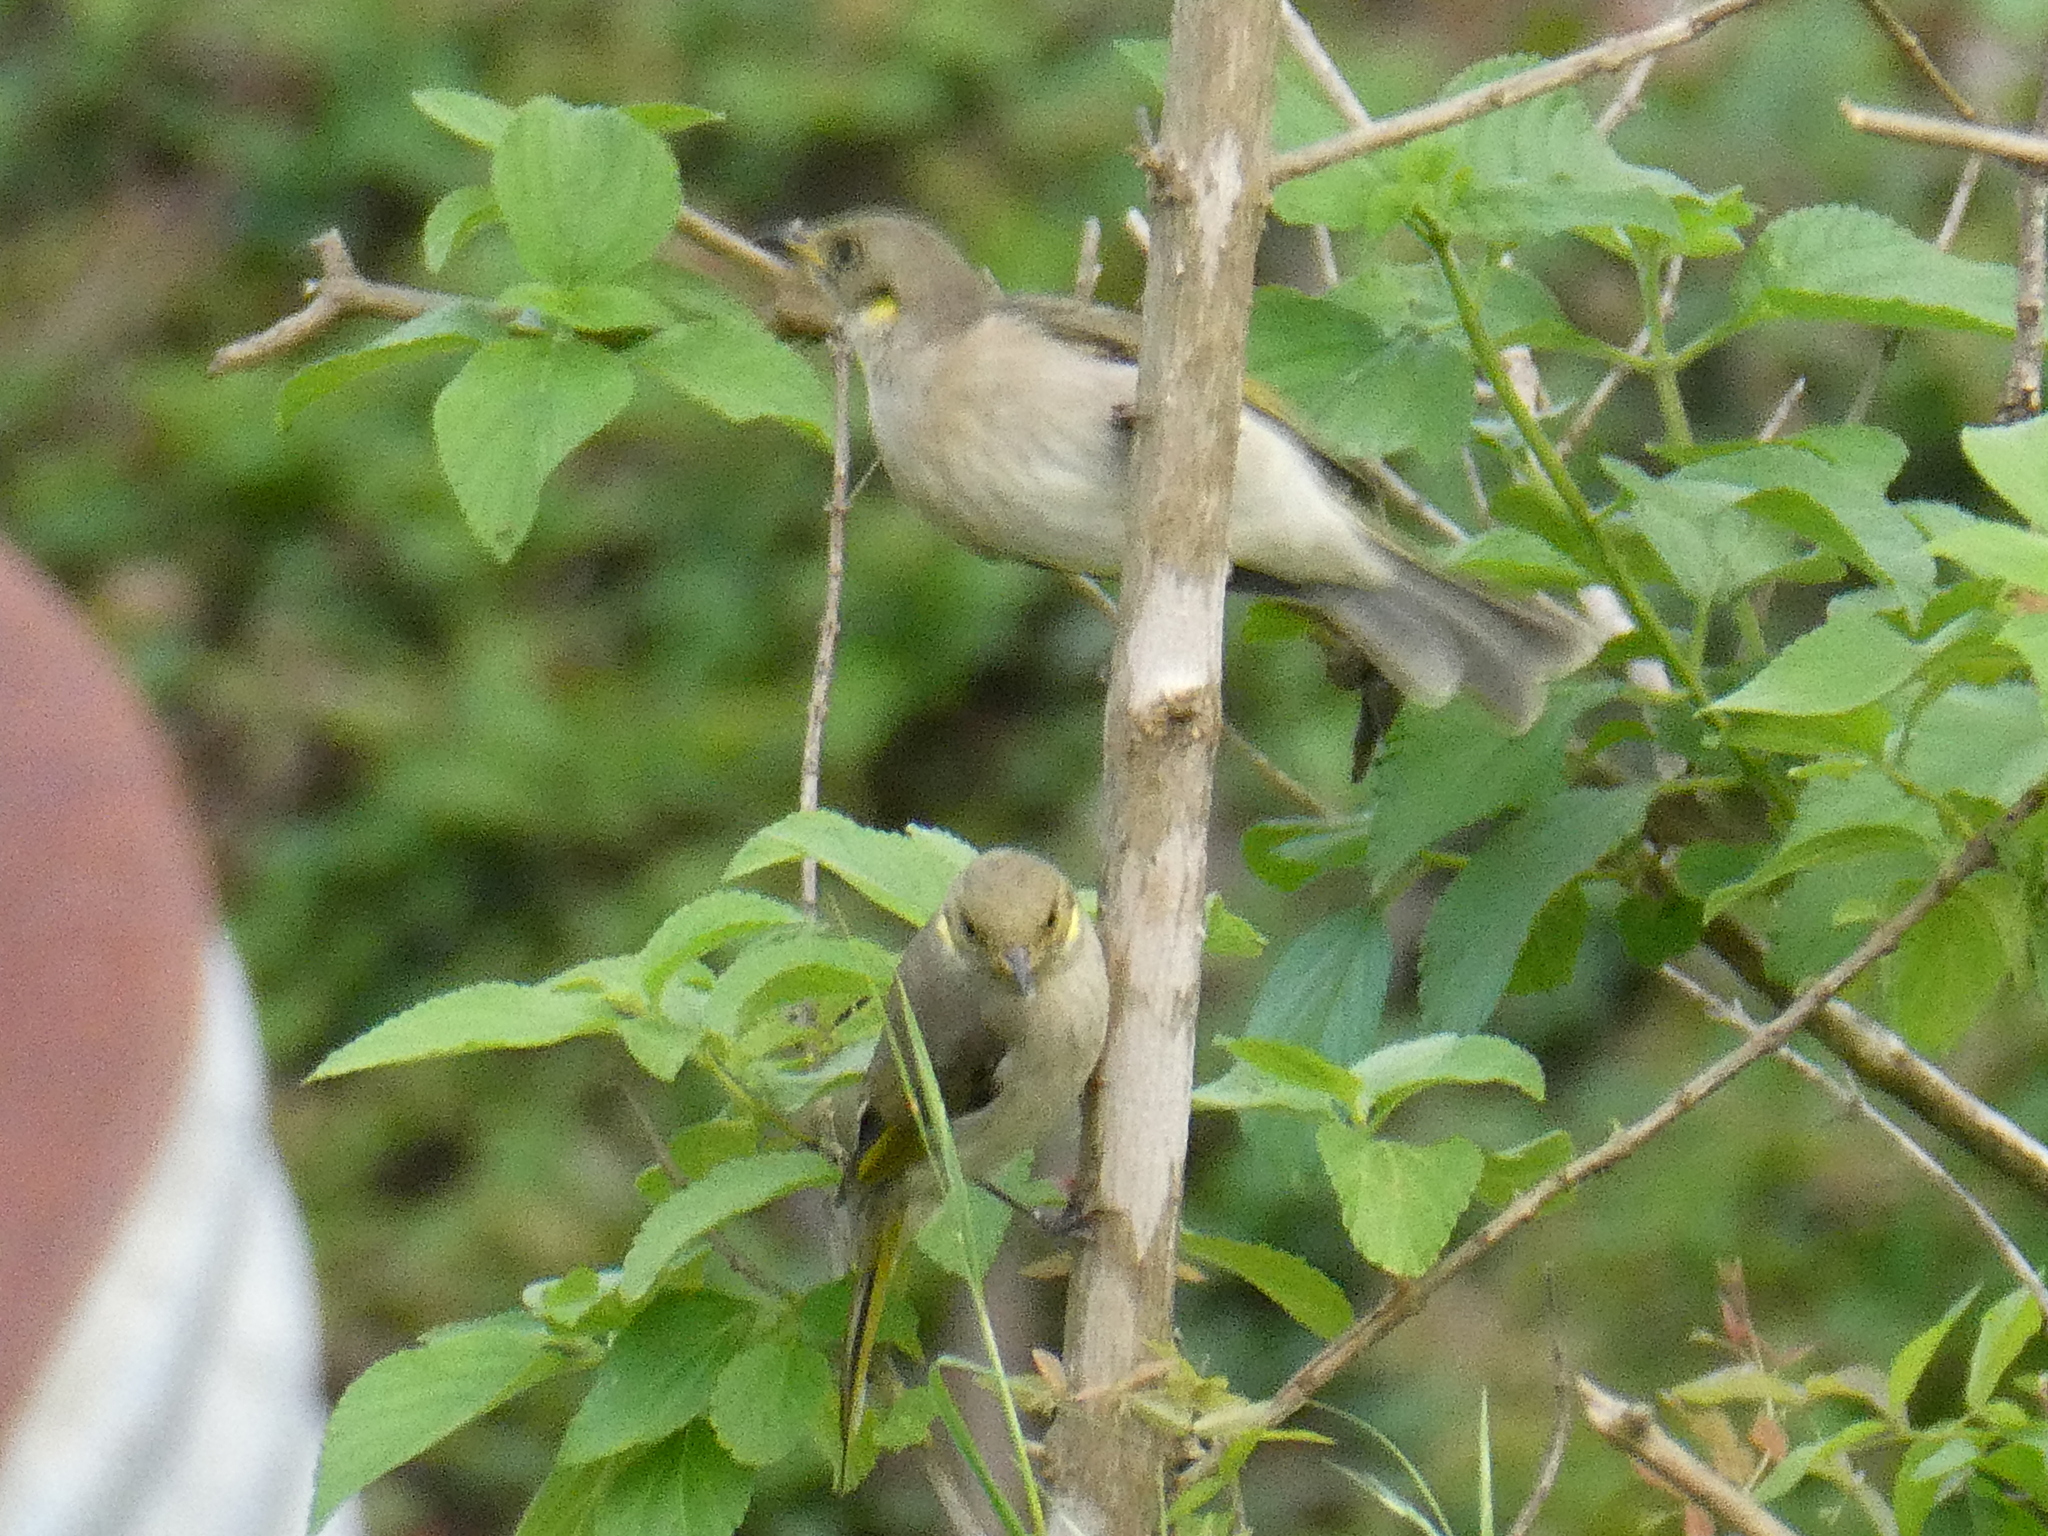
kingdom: Animalia
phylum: Chordata
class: Aves
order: Passeriformes
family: Meliphagidae
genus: Ptilotula
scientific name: Ptilotula fusca
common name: Fuscous honeyeater
